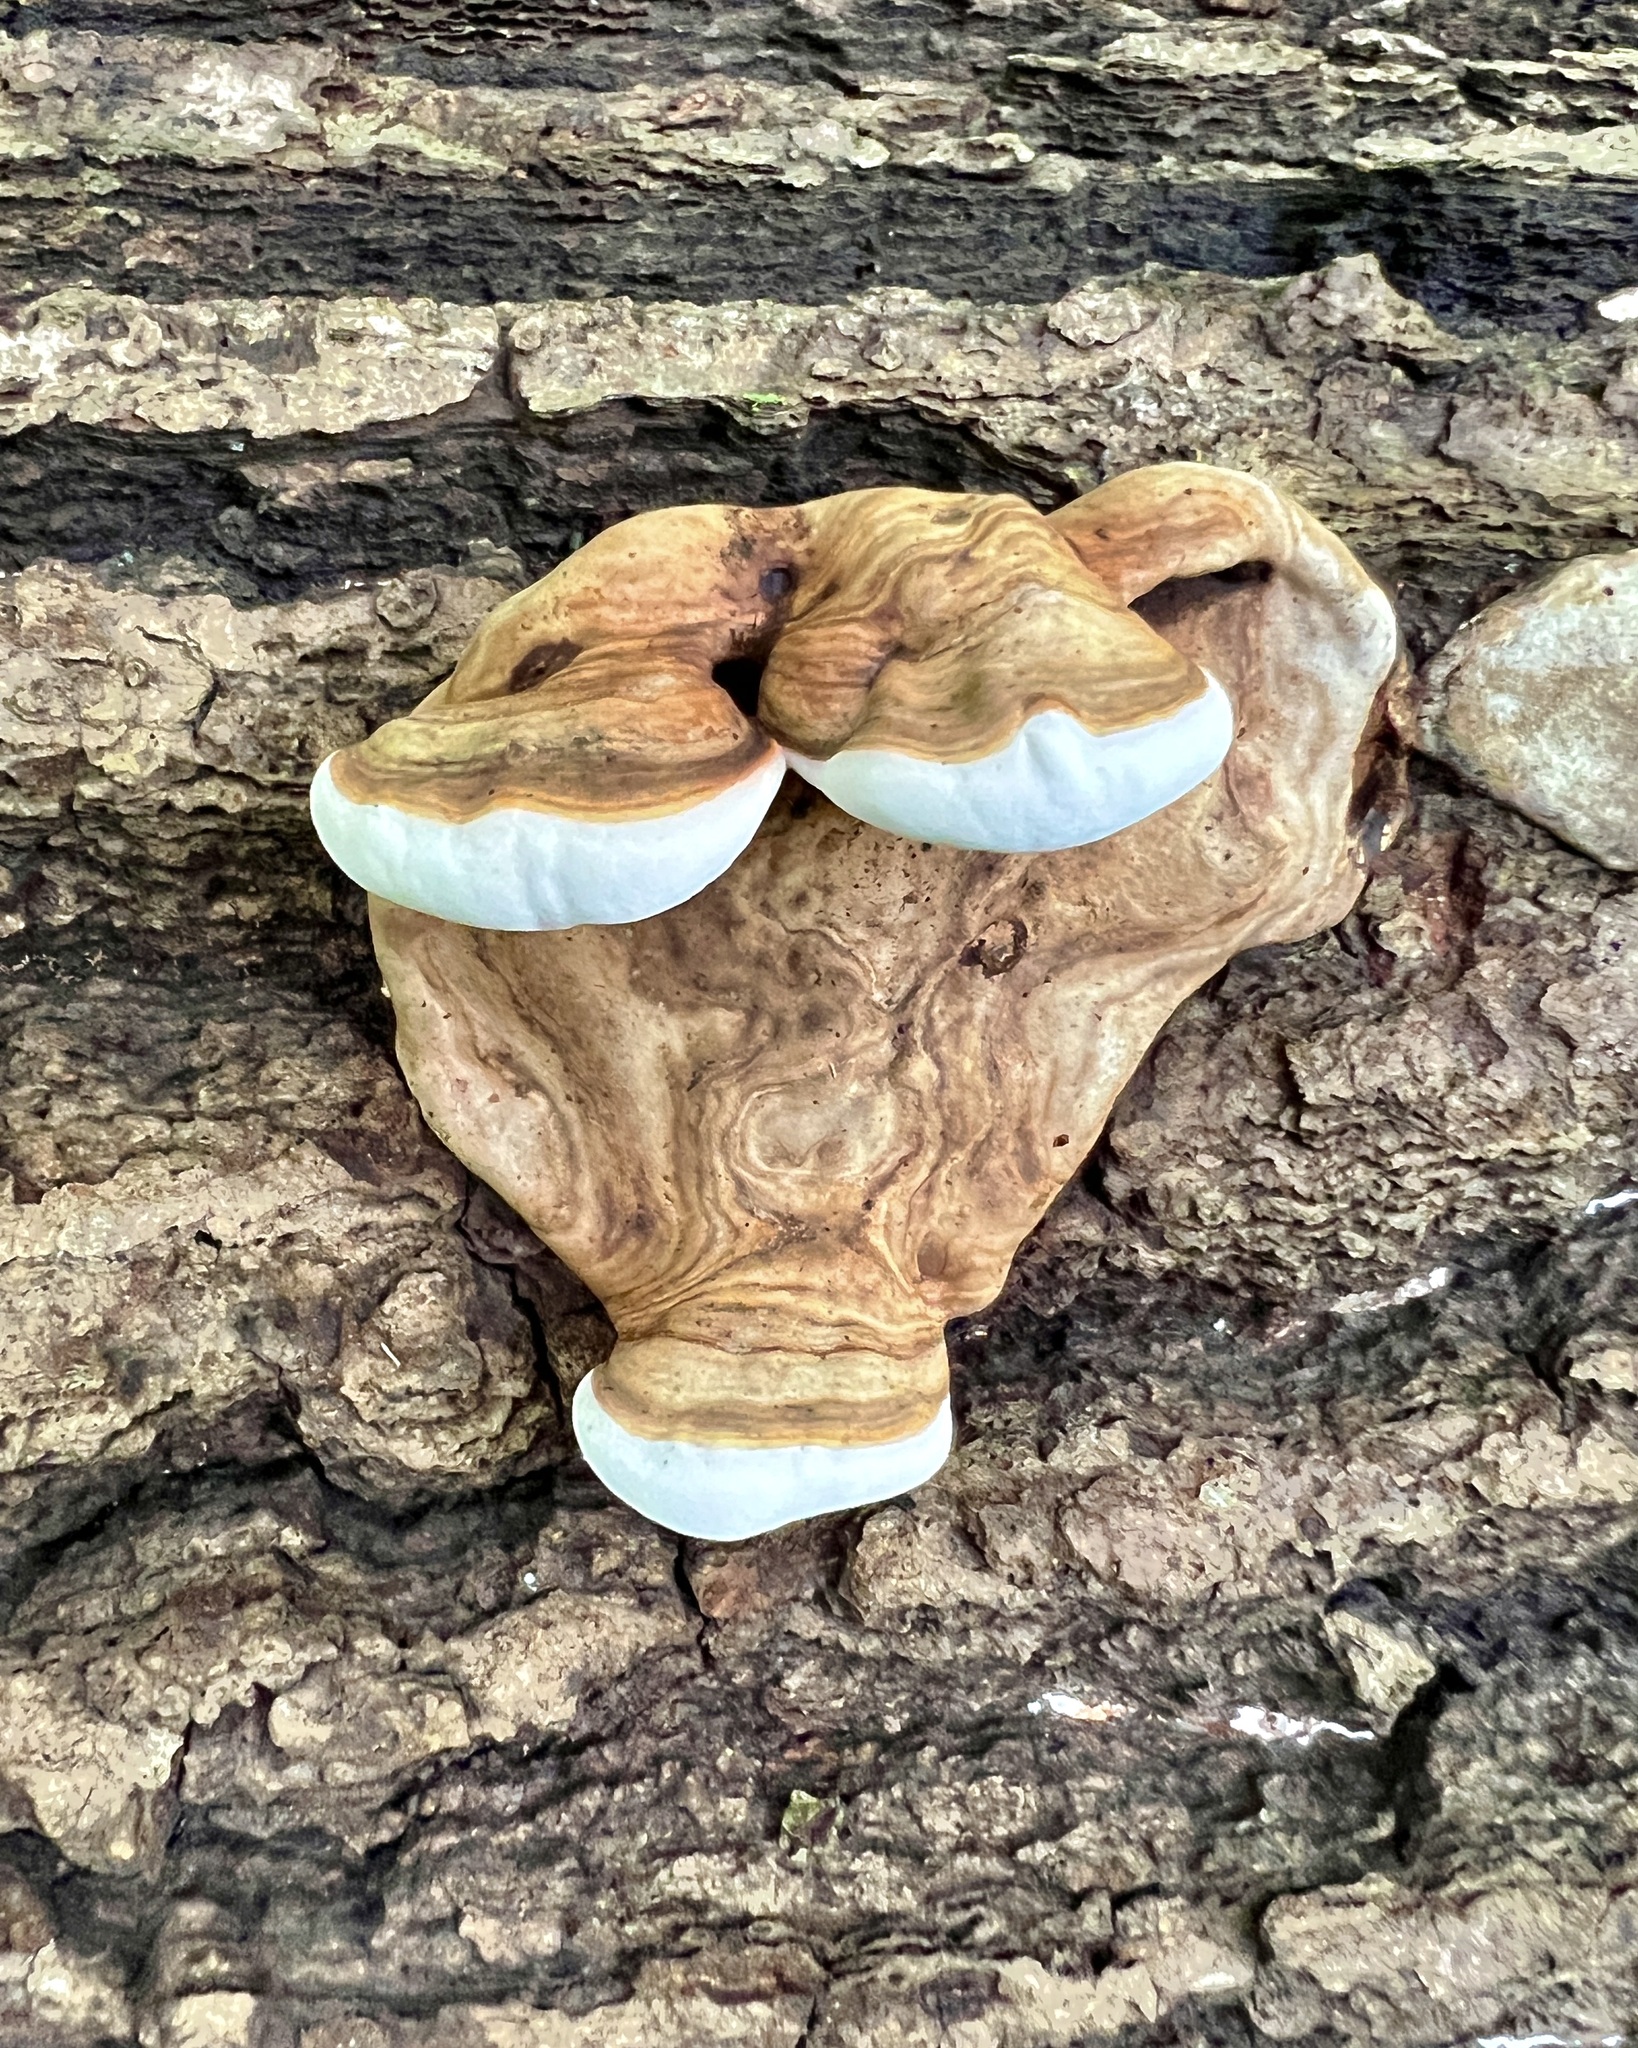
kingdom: Fungi
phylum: Basidiomycota
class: Agaricomycetes
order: Polyporales
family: Polyporaceae
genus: Ganoderma
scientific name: Ganoderma lobatum
